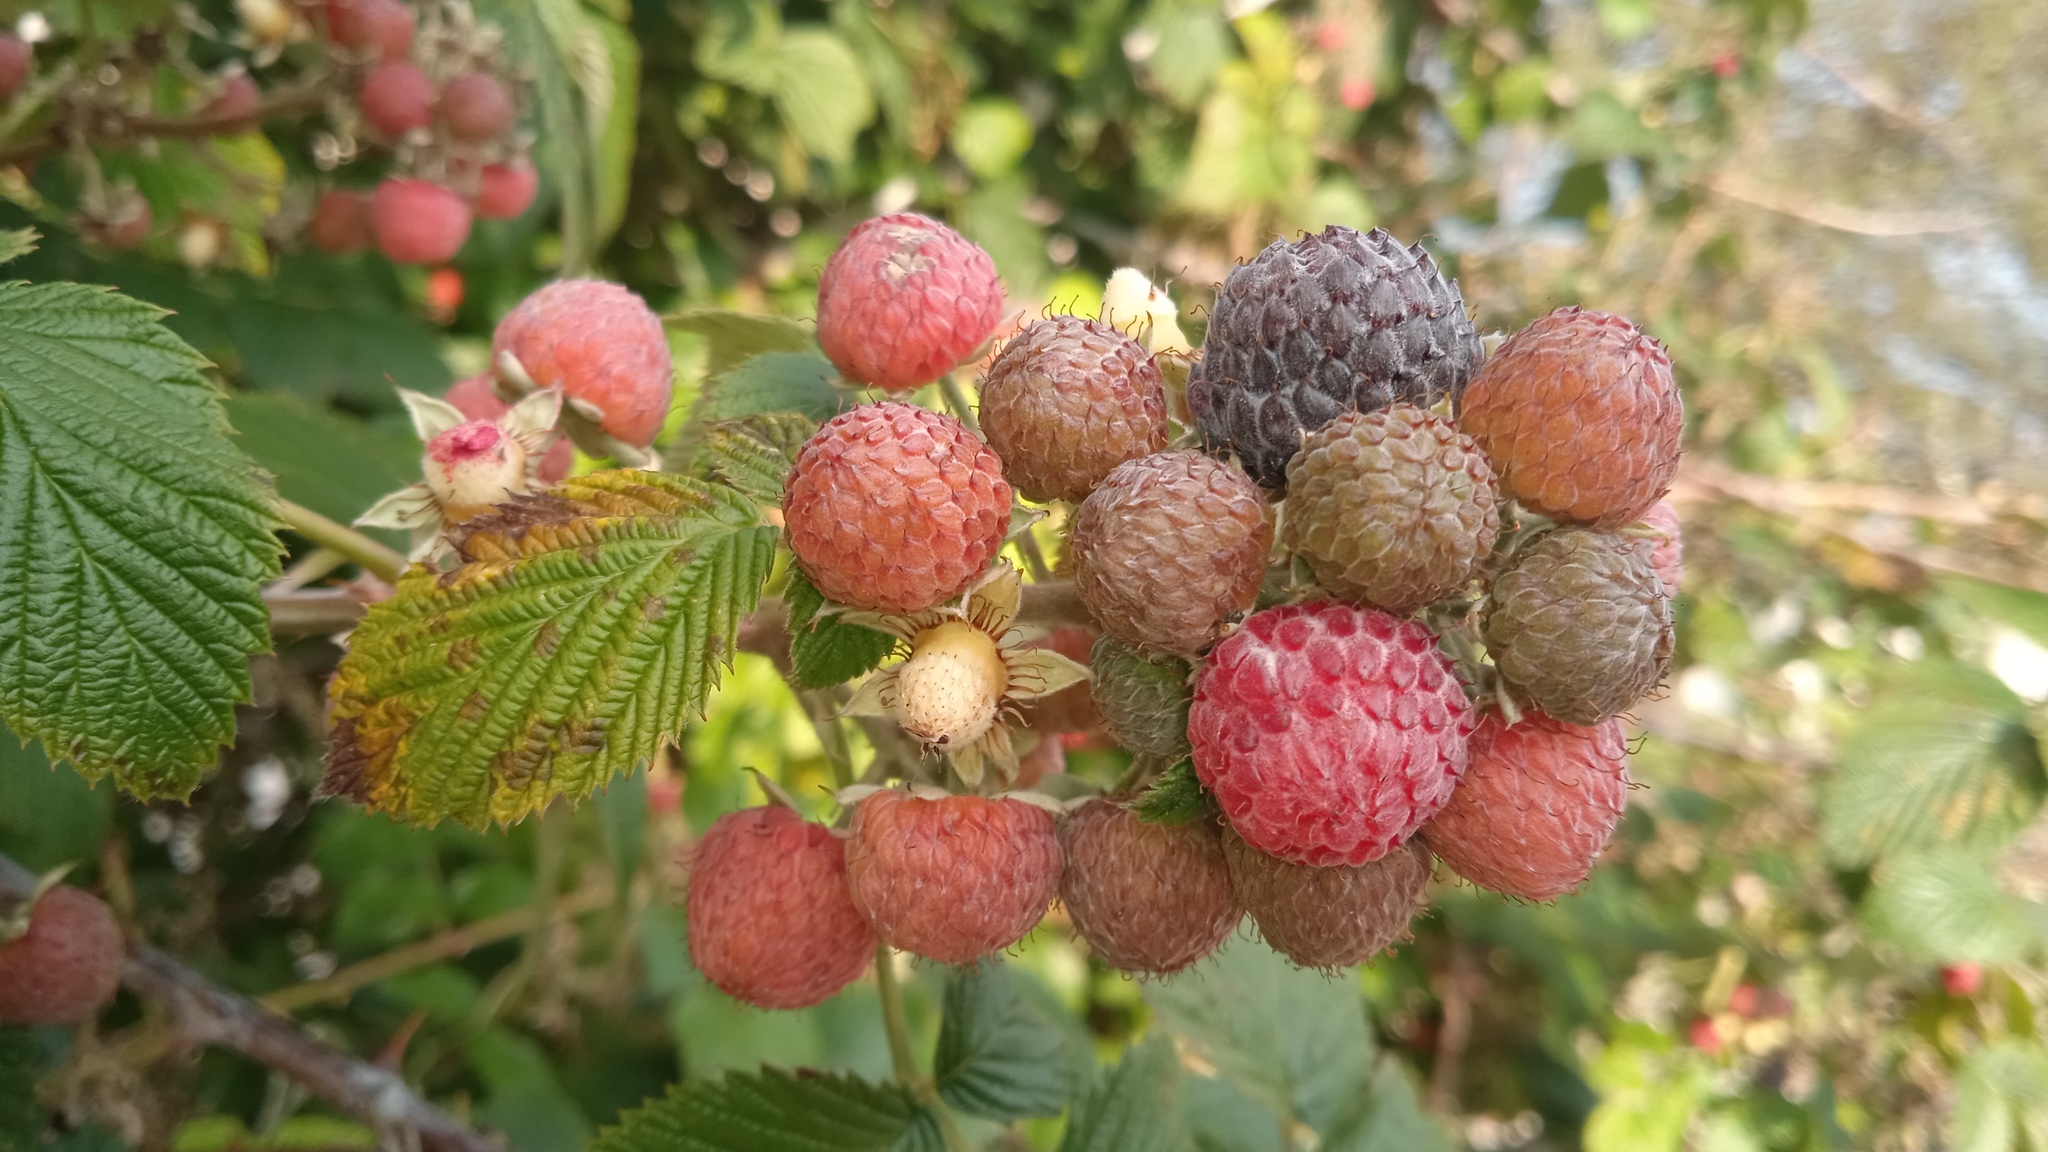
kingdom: Plantae
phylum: Tracheophyta
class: Magnoliopsida
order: Rosales
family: Rosaceae
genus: Rubus
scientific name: Rubus niveus
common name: Snowpeaks raspberry
